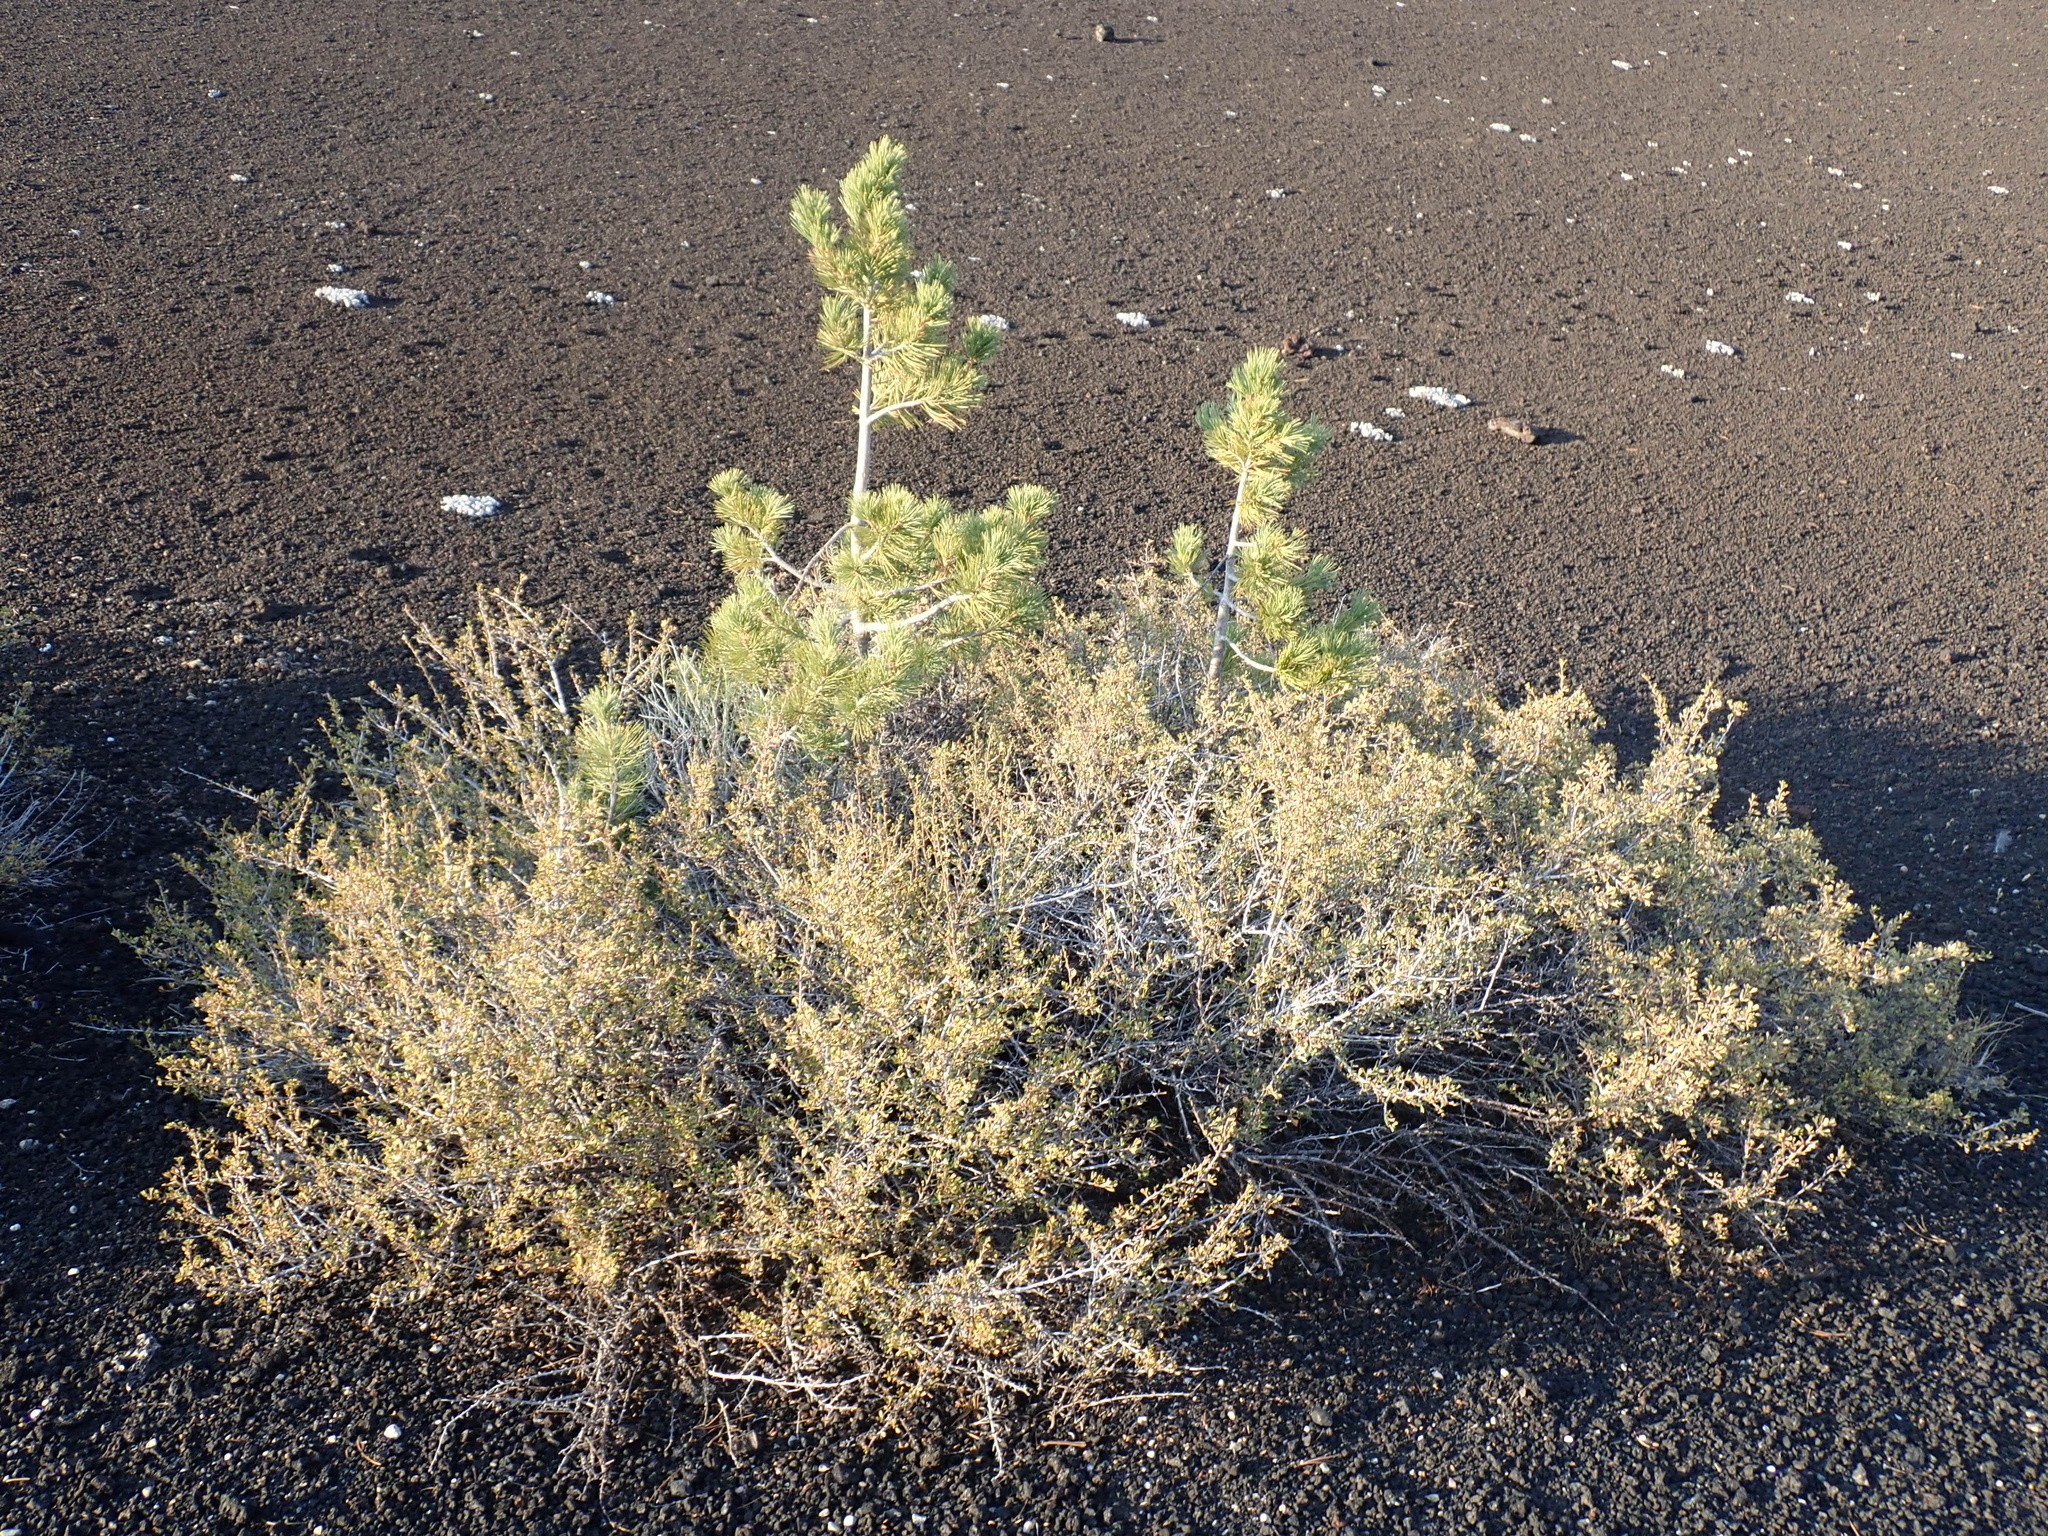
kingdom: Plantae
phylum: Tracheophyta
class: Magnoliopsida
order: Rosales
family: Rosaceae
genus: Purshia
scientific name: Purshia tridentata
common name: Antelope bitterbrush
